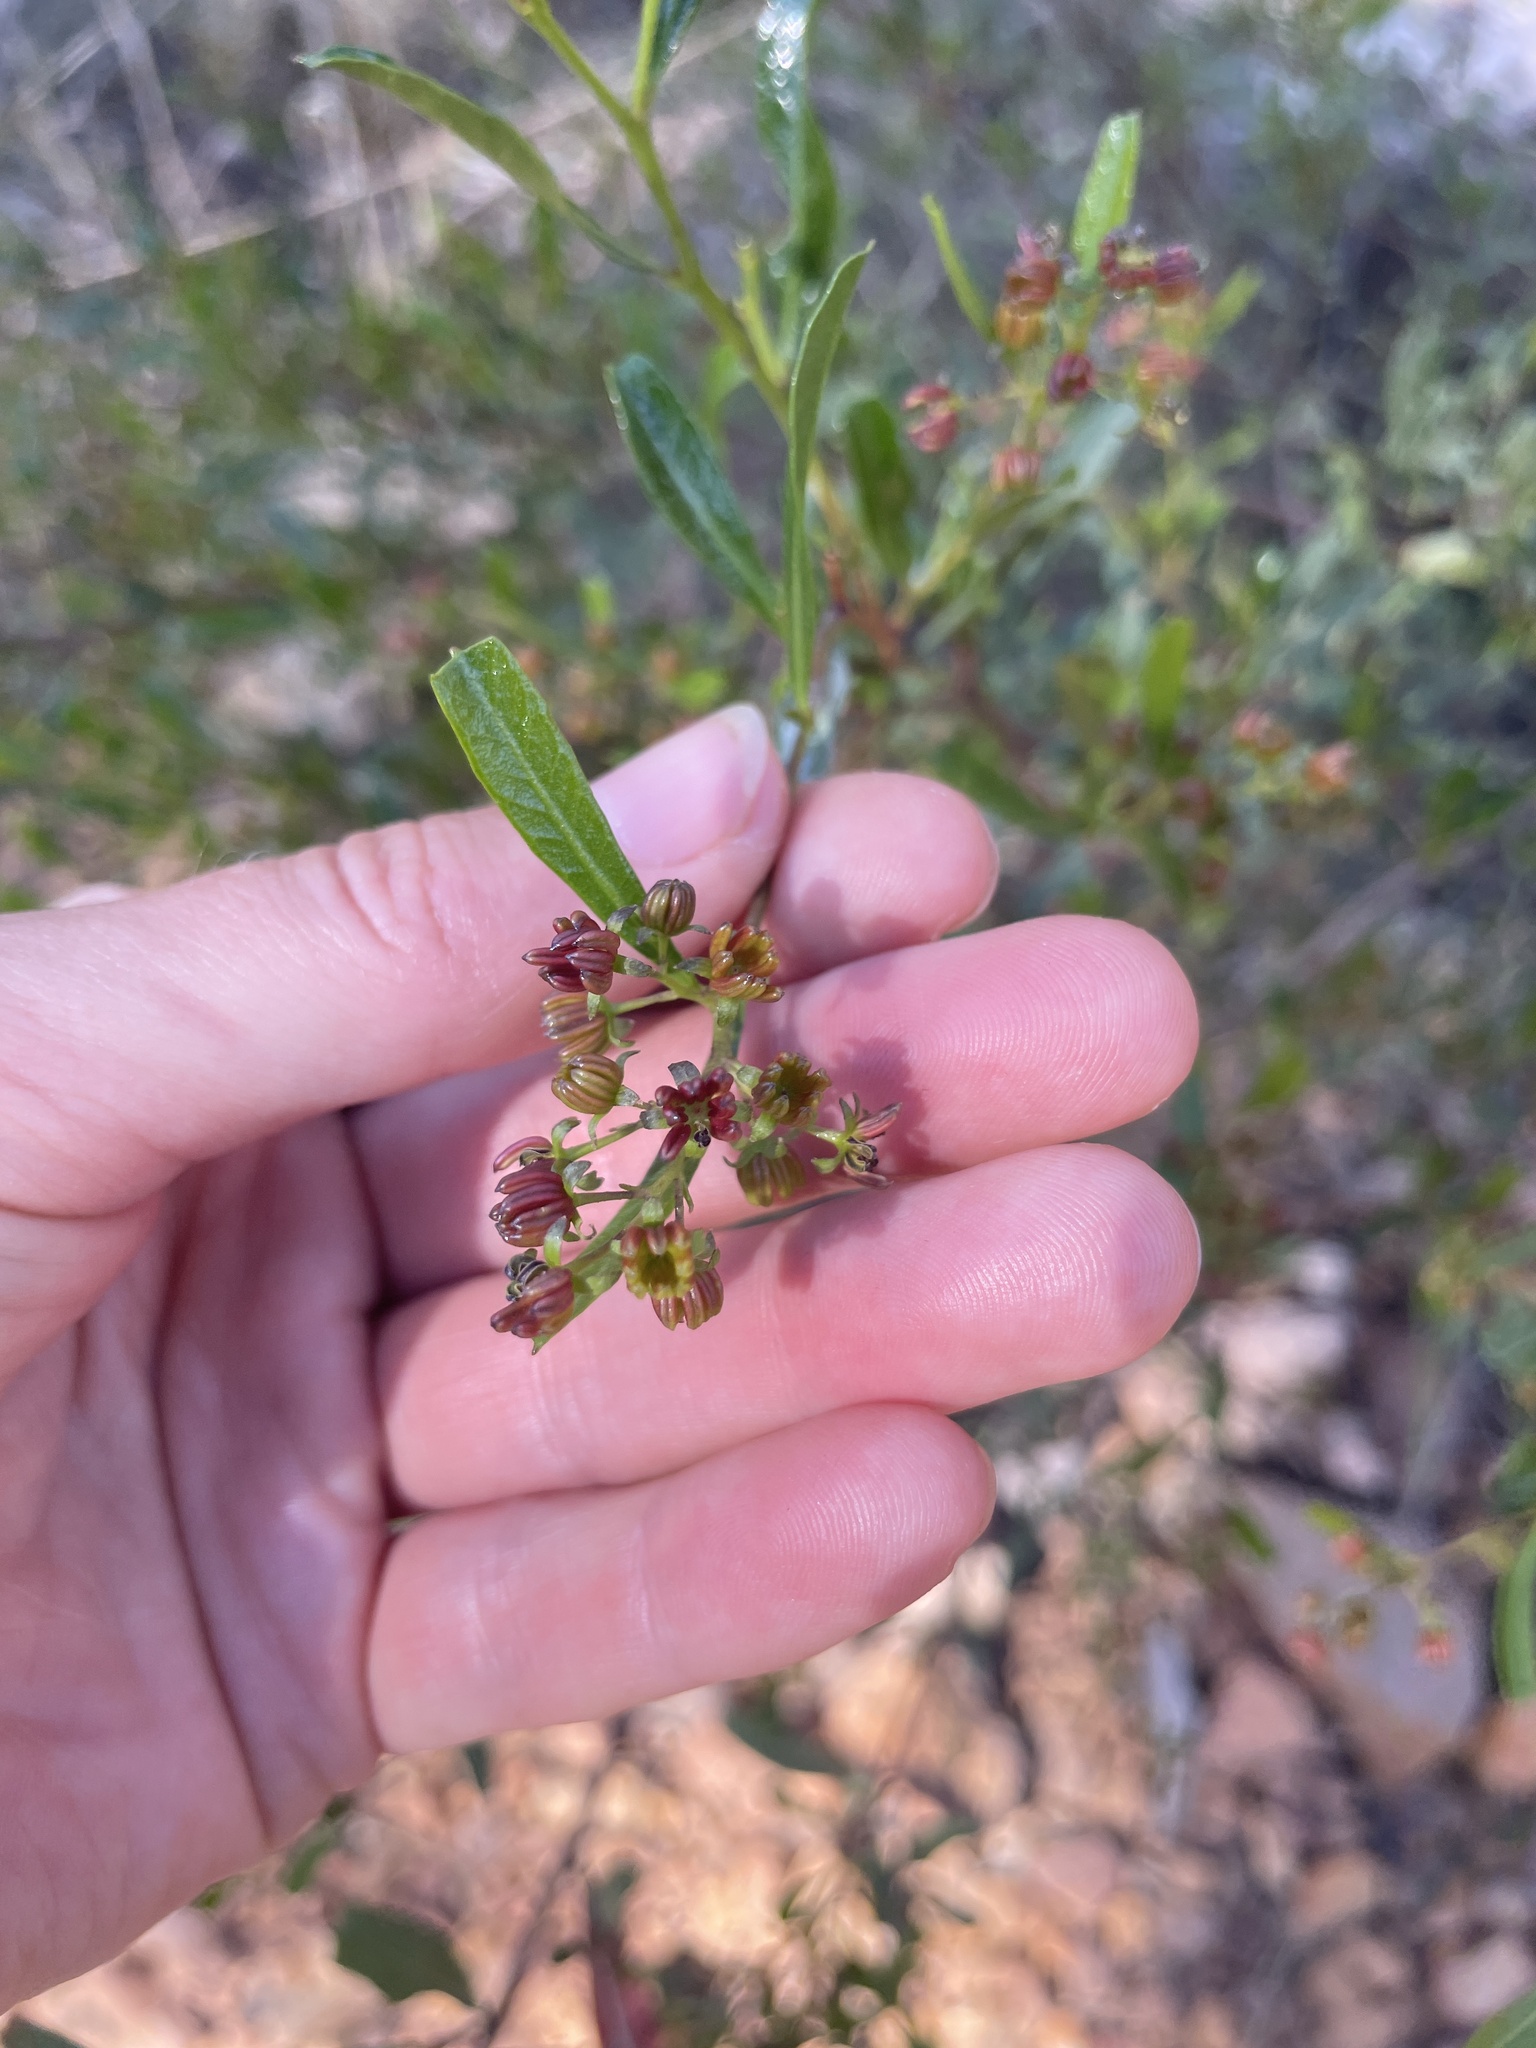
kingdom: Plantae
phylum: Tracheophyta
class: Magnoliopsida
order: Sapindales
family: Sapindaceae
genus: Dodonaea
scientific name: Dodonaea viscosa
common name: Hopbush
